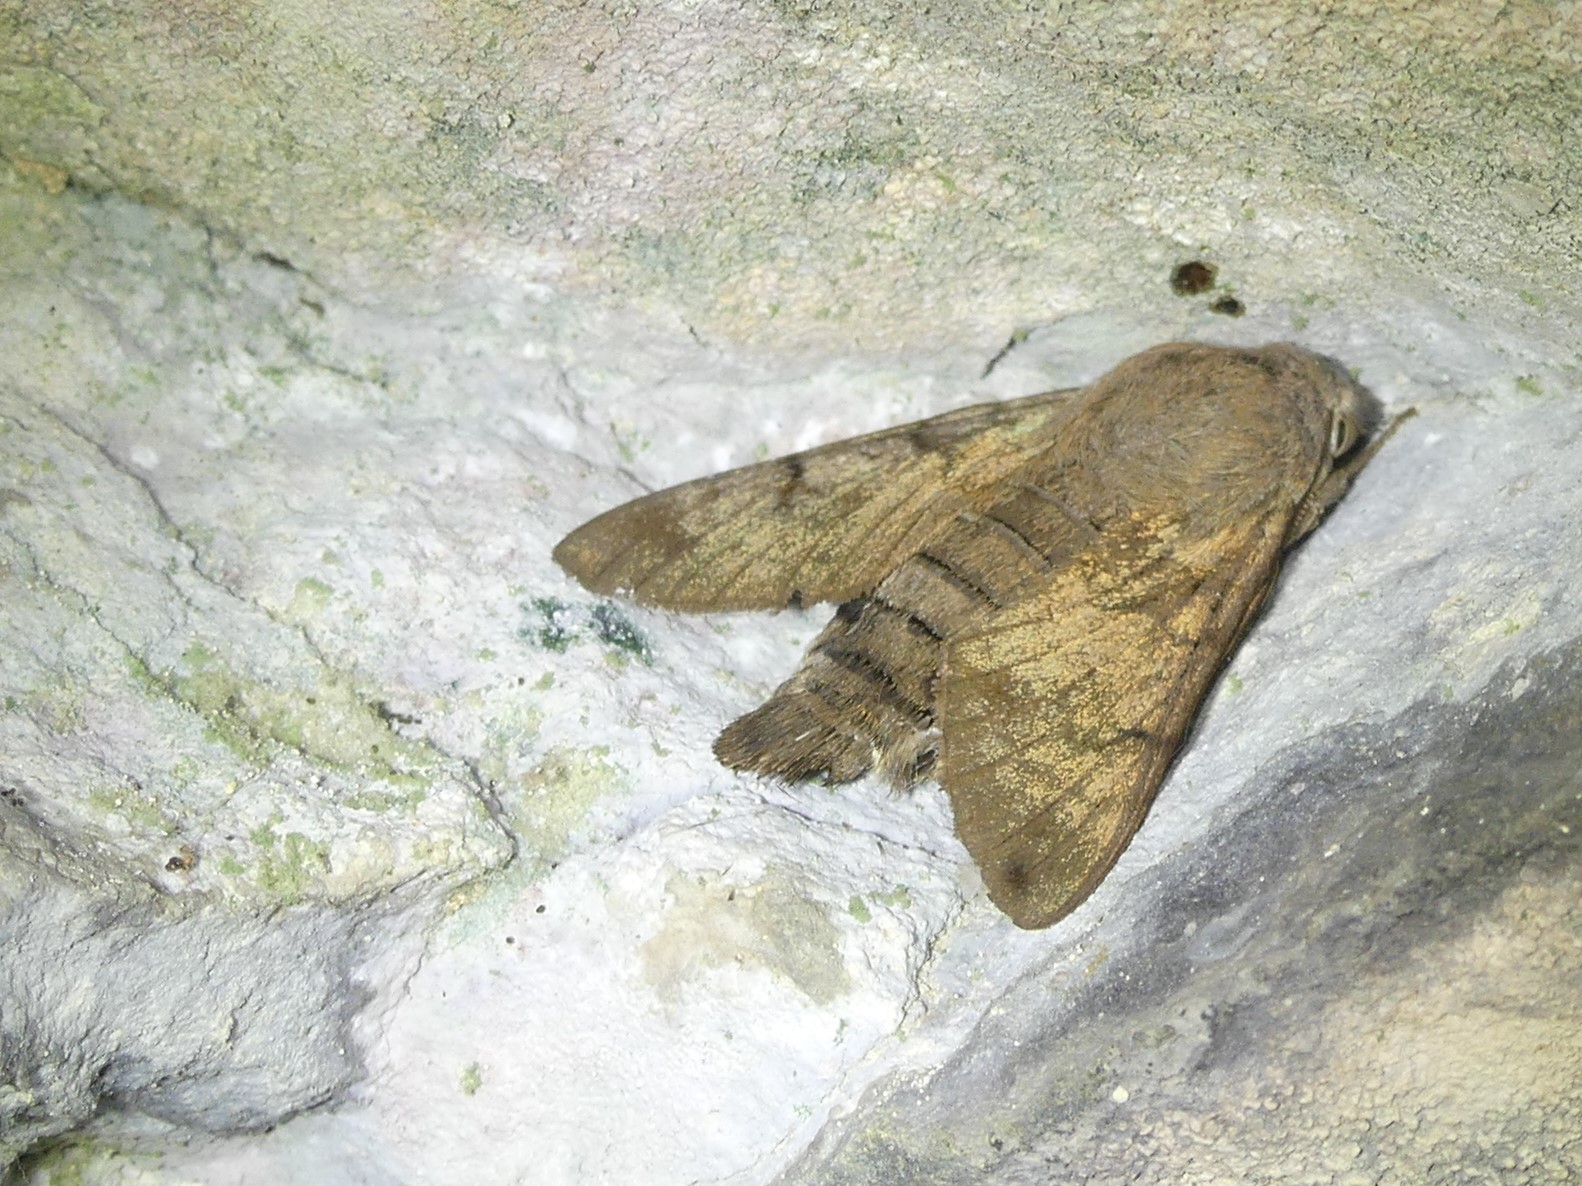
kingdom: Animalia
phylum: Arthropoda
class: Insecta
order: Lepidoptera
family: Sphingidae
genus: Macroglossum
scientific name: Macroglossum stellatarum
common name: Humming-bird hawk-moth
